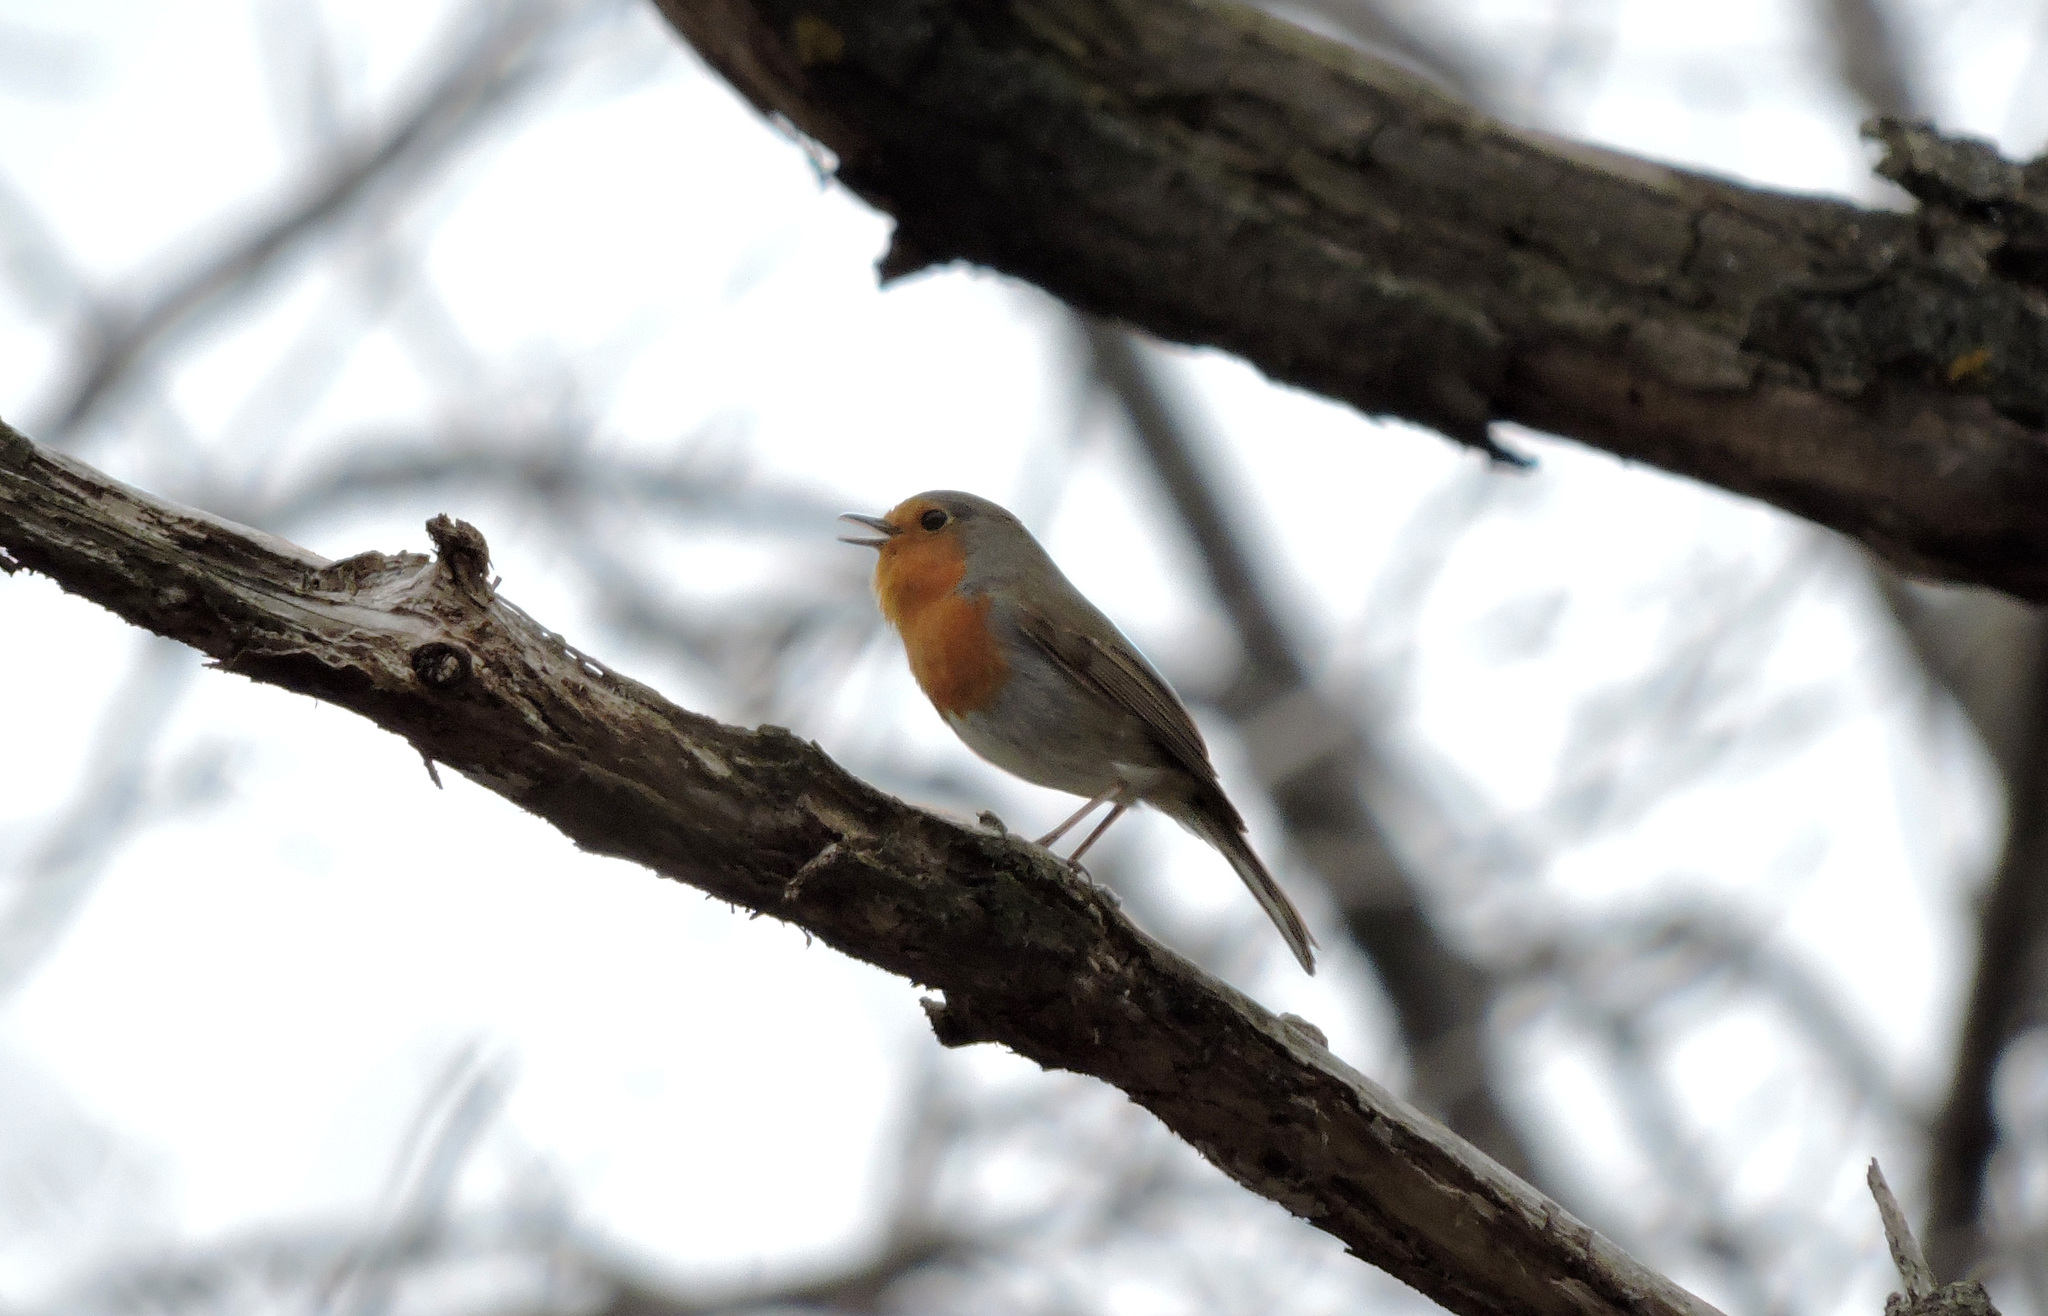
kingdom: Animalia
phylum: Chordata
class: Aves
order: Passeriformes
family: Muscicapidae
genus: Erithacus
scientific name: Erithacus rubecula
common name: European robin
